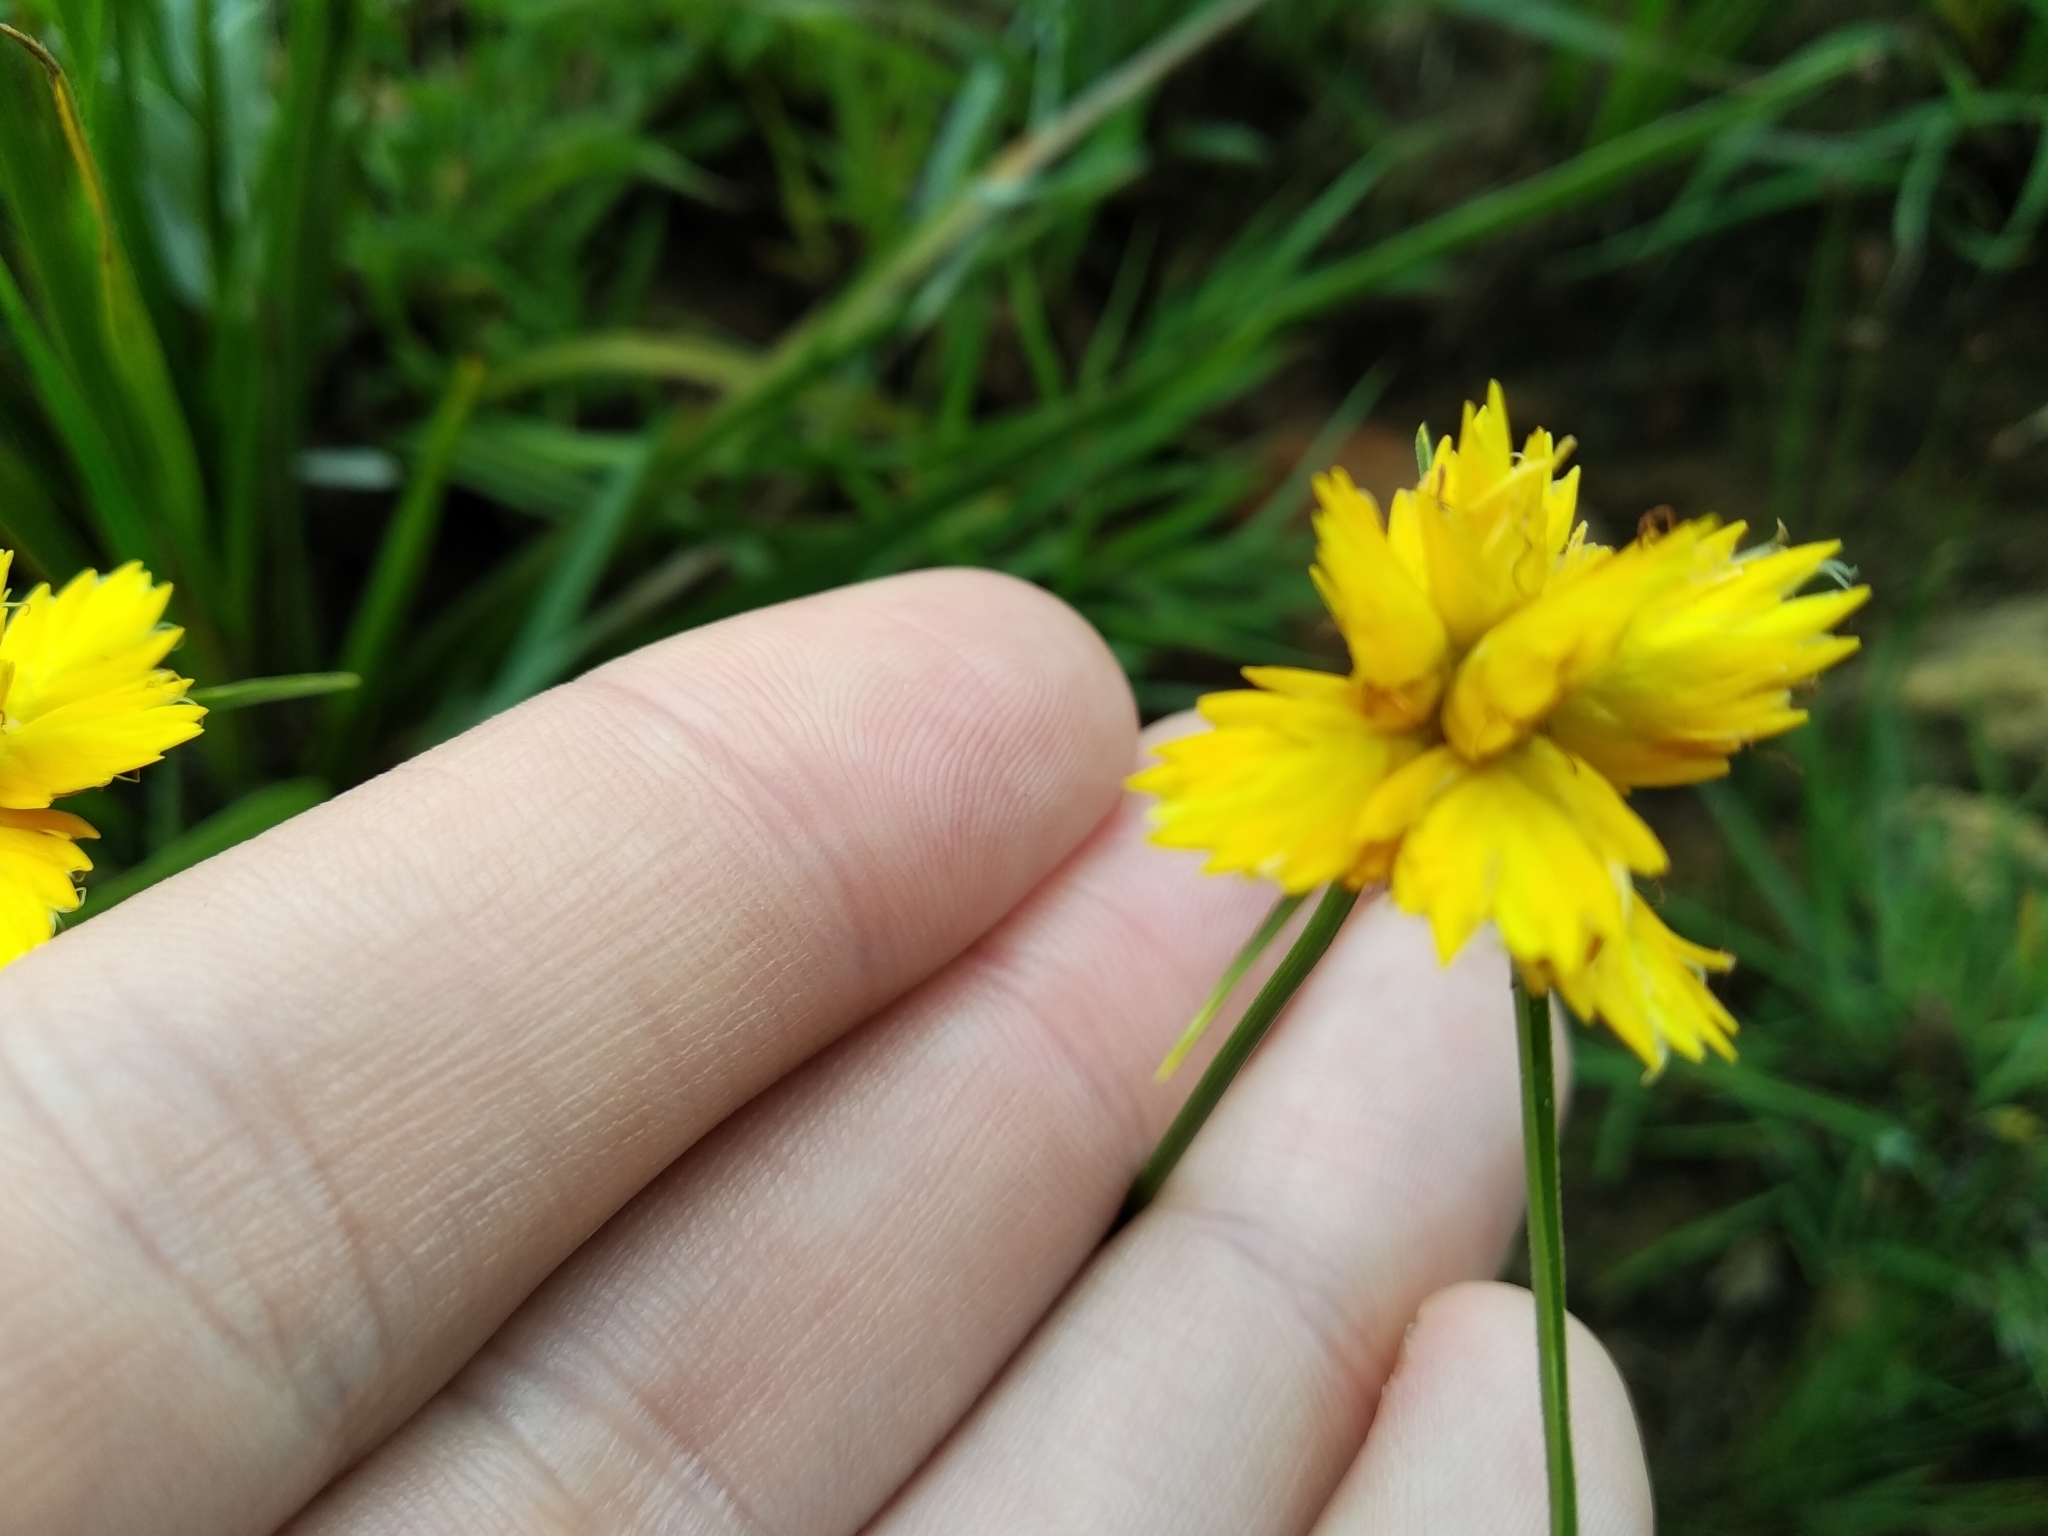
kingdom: Plantae
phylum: Tracheophyta
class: Liliopsida
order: Poales
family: Cyperaceae
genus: Cyperus
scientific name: Cyperus sphaerocephalus
